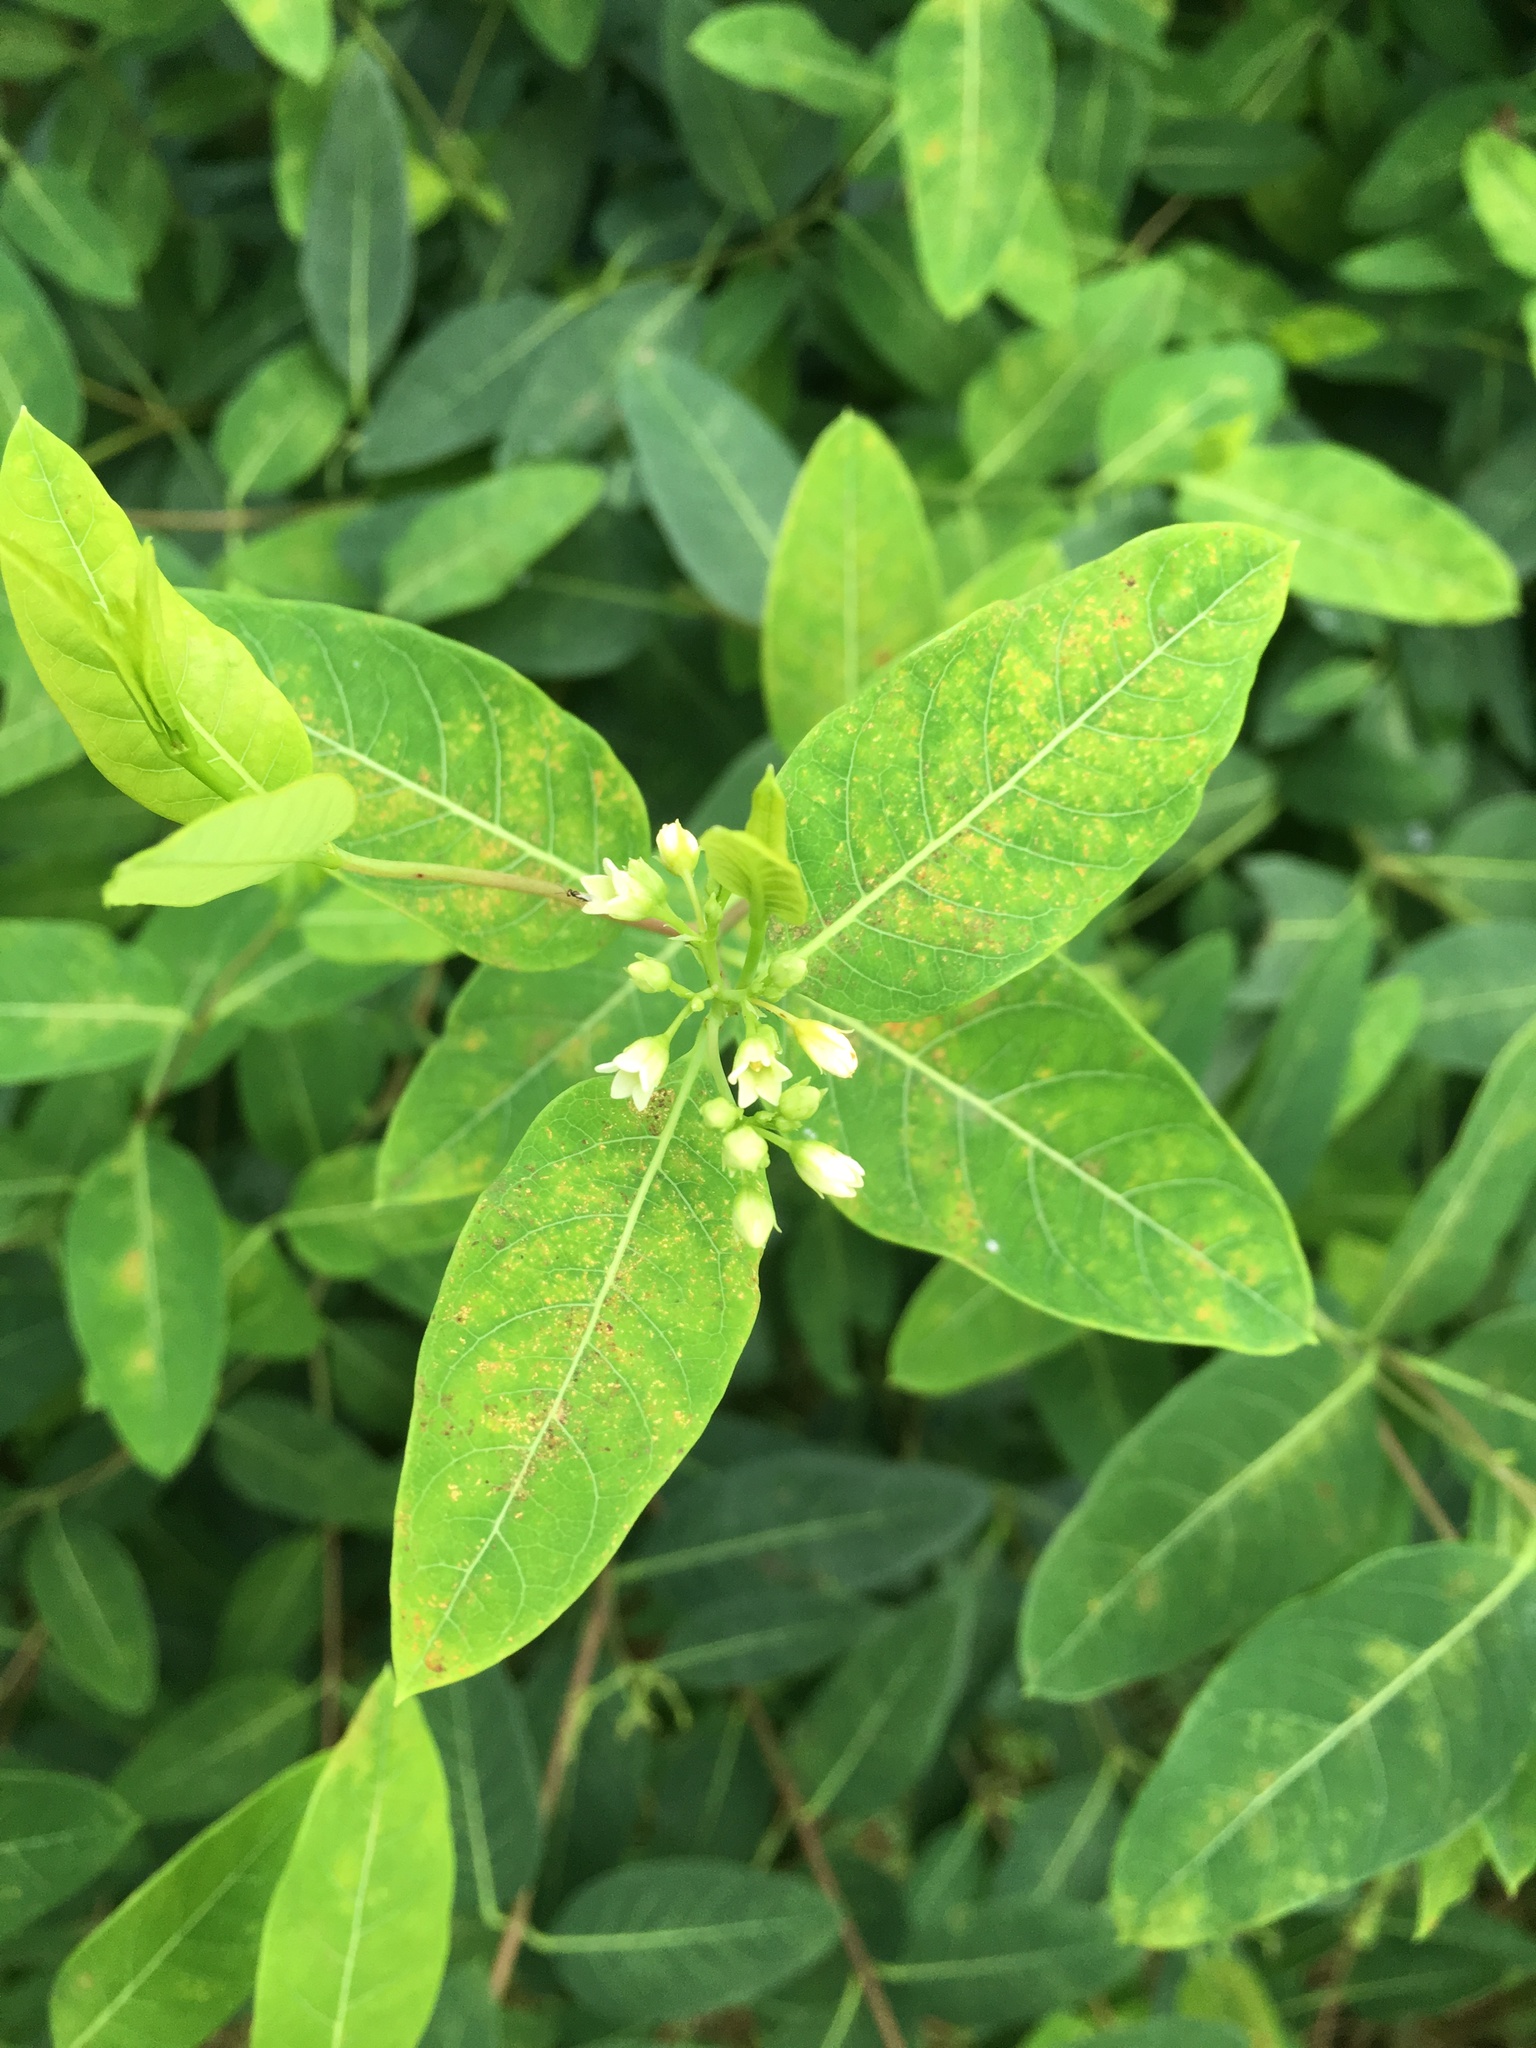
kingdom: Plantae
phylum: Tracheophyta
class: Magnoliopsida
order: Gentianales
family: Apocynaceae
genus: Apocynum
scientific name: Apocynum cannabinum
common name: Hemp dogbane
